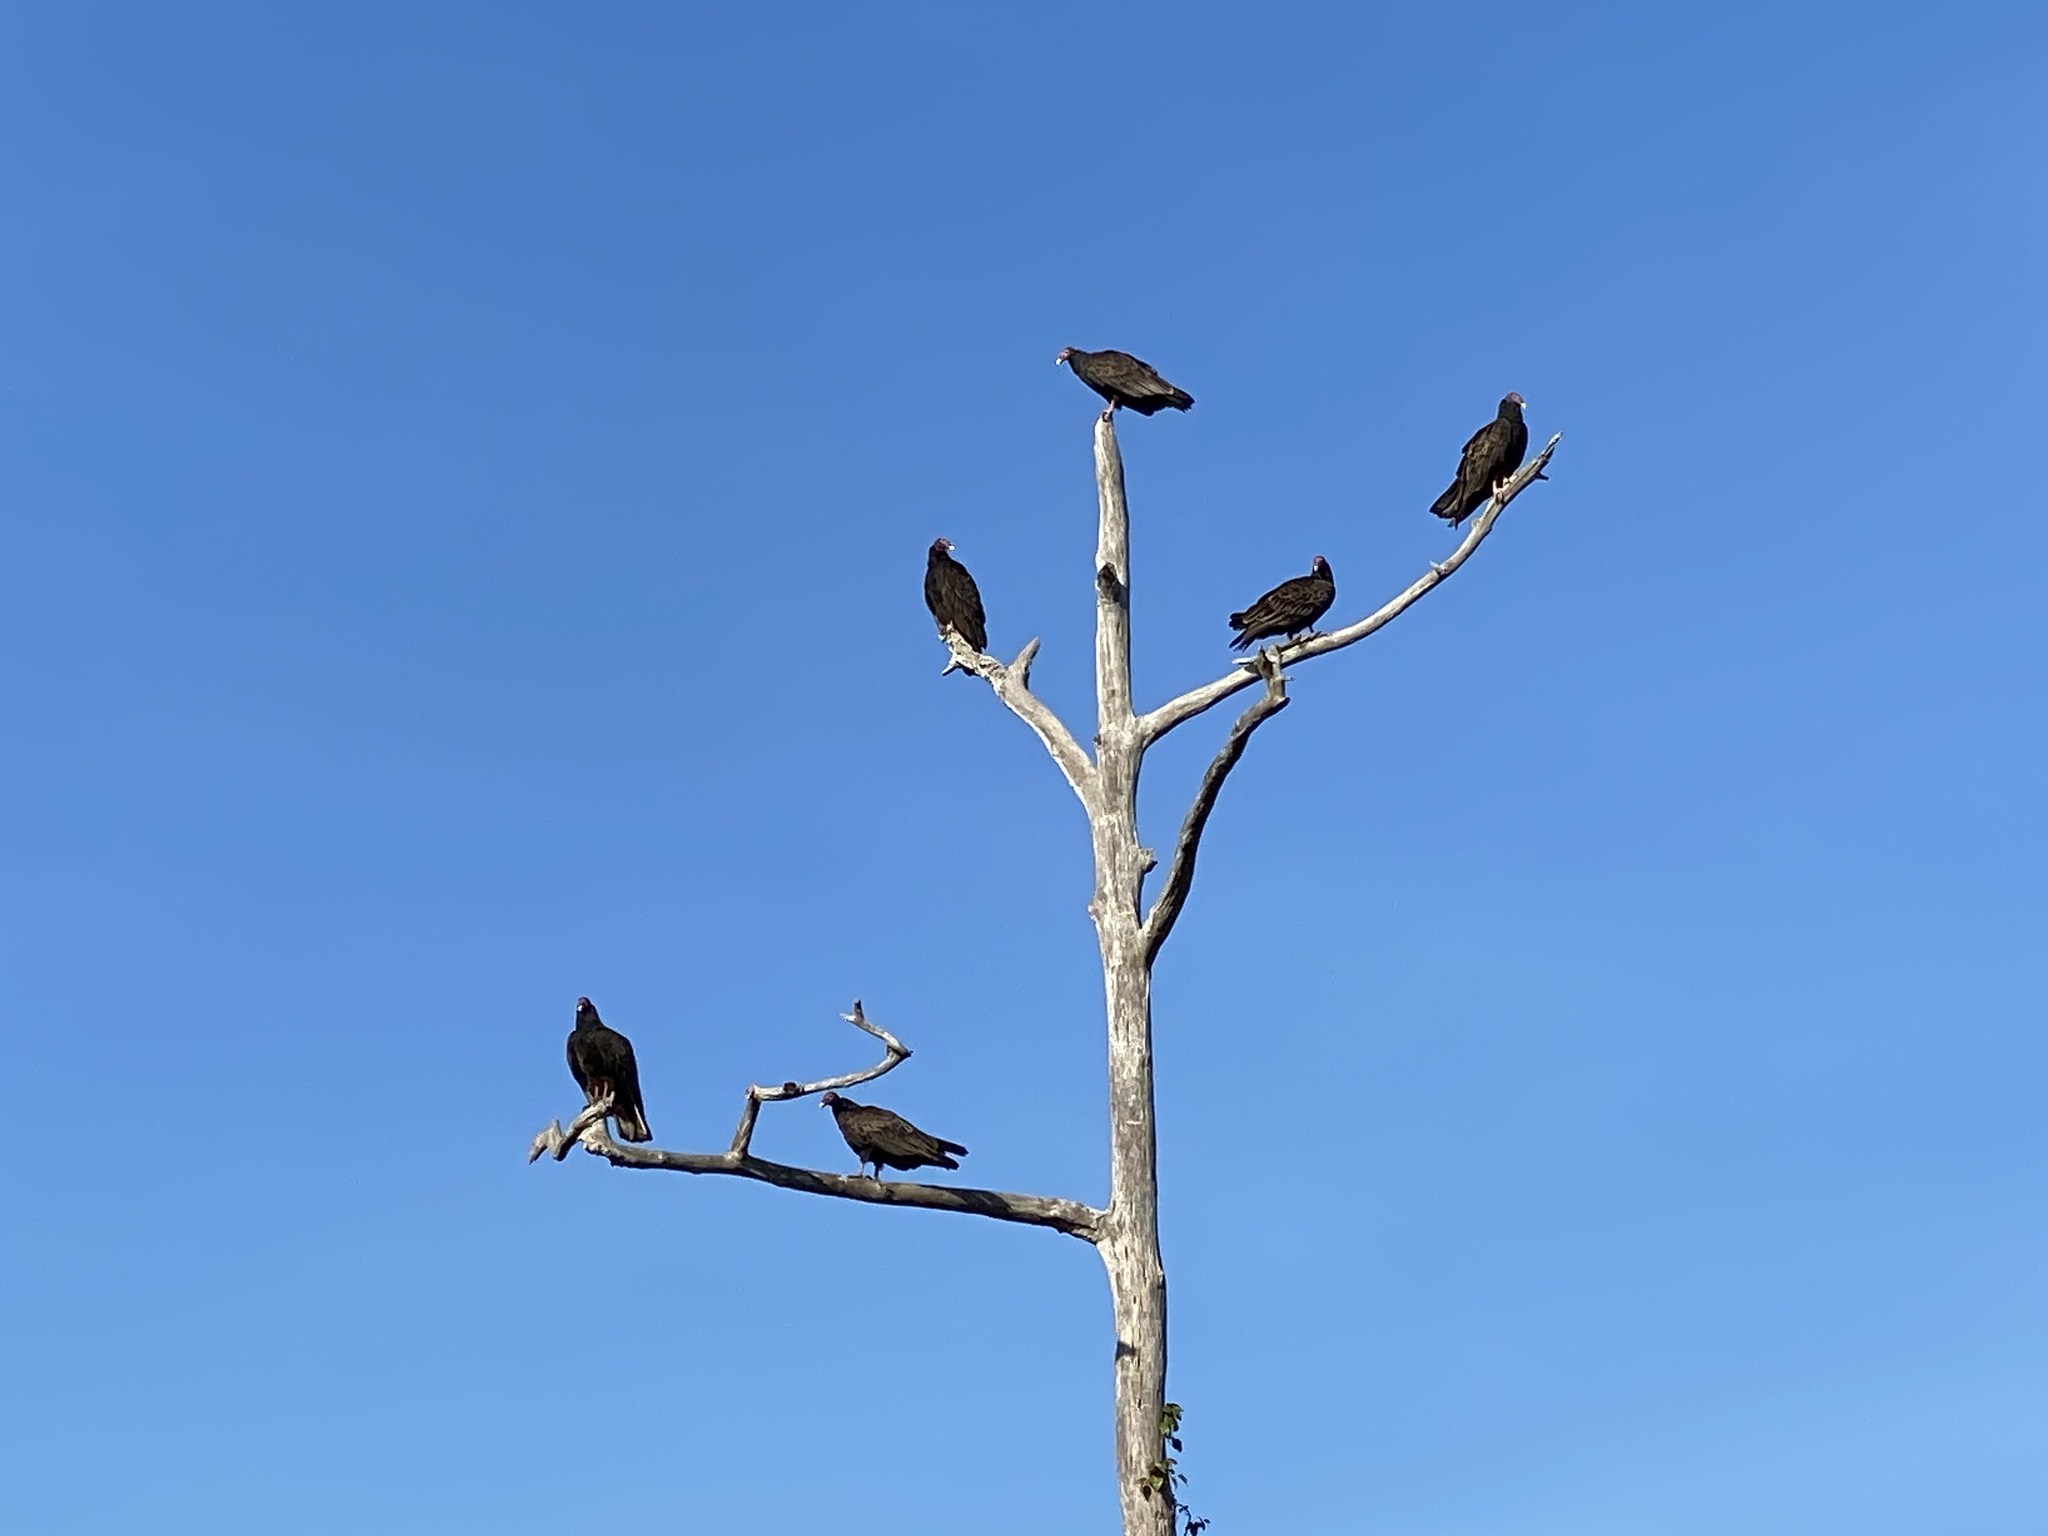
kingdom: Animalia
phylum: Chordata
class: Aves
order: Accipitriformes
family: Cathartidae
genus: Cathartes
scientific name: Cathartes aura
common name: Turkey vulture
